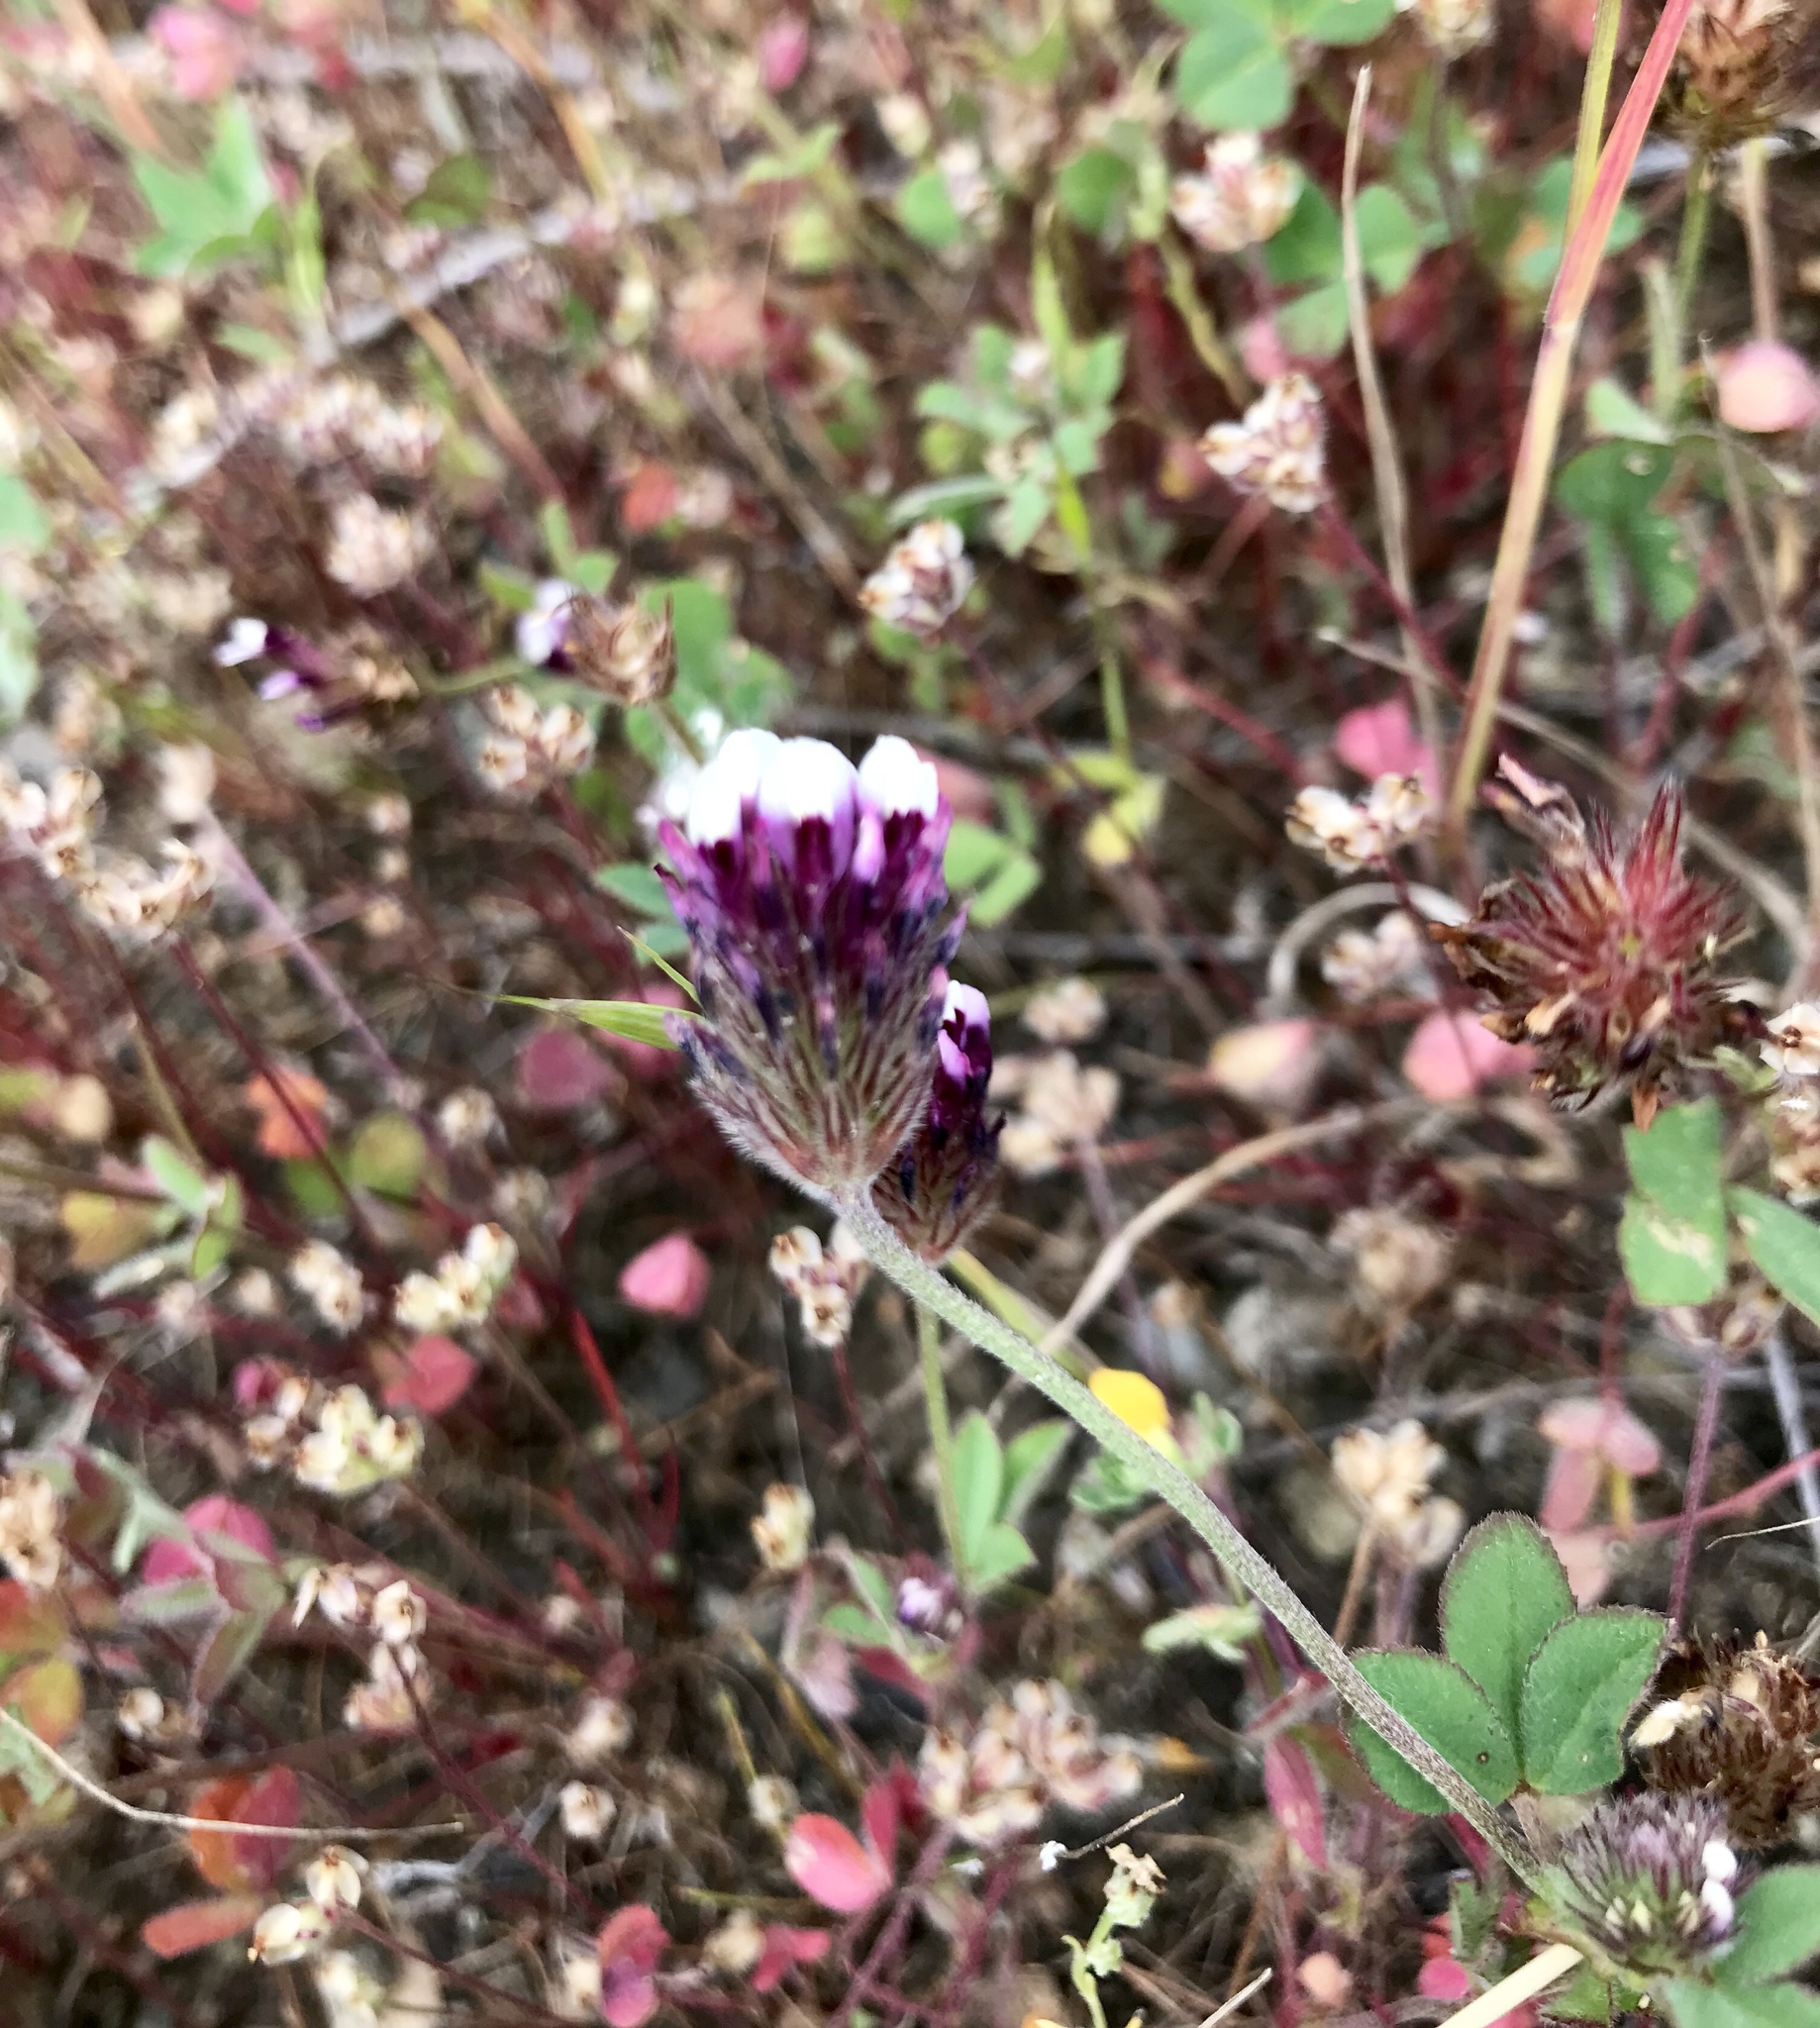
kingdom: Plantae
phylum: Tracheophyta
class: Magnoliopsida
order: Fabales
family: Fabaceae
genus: Trifolium
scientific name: Trifolium dichotomum
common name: Branched indian clover
